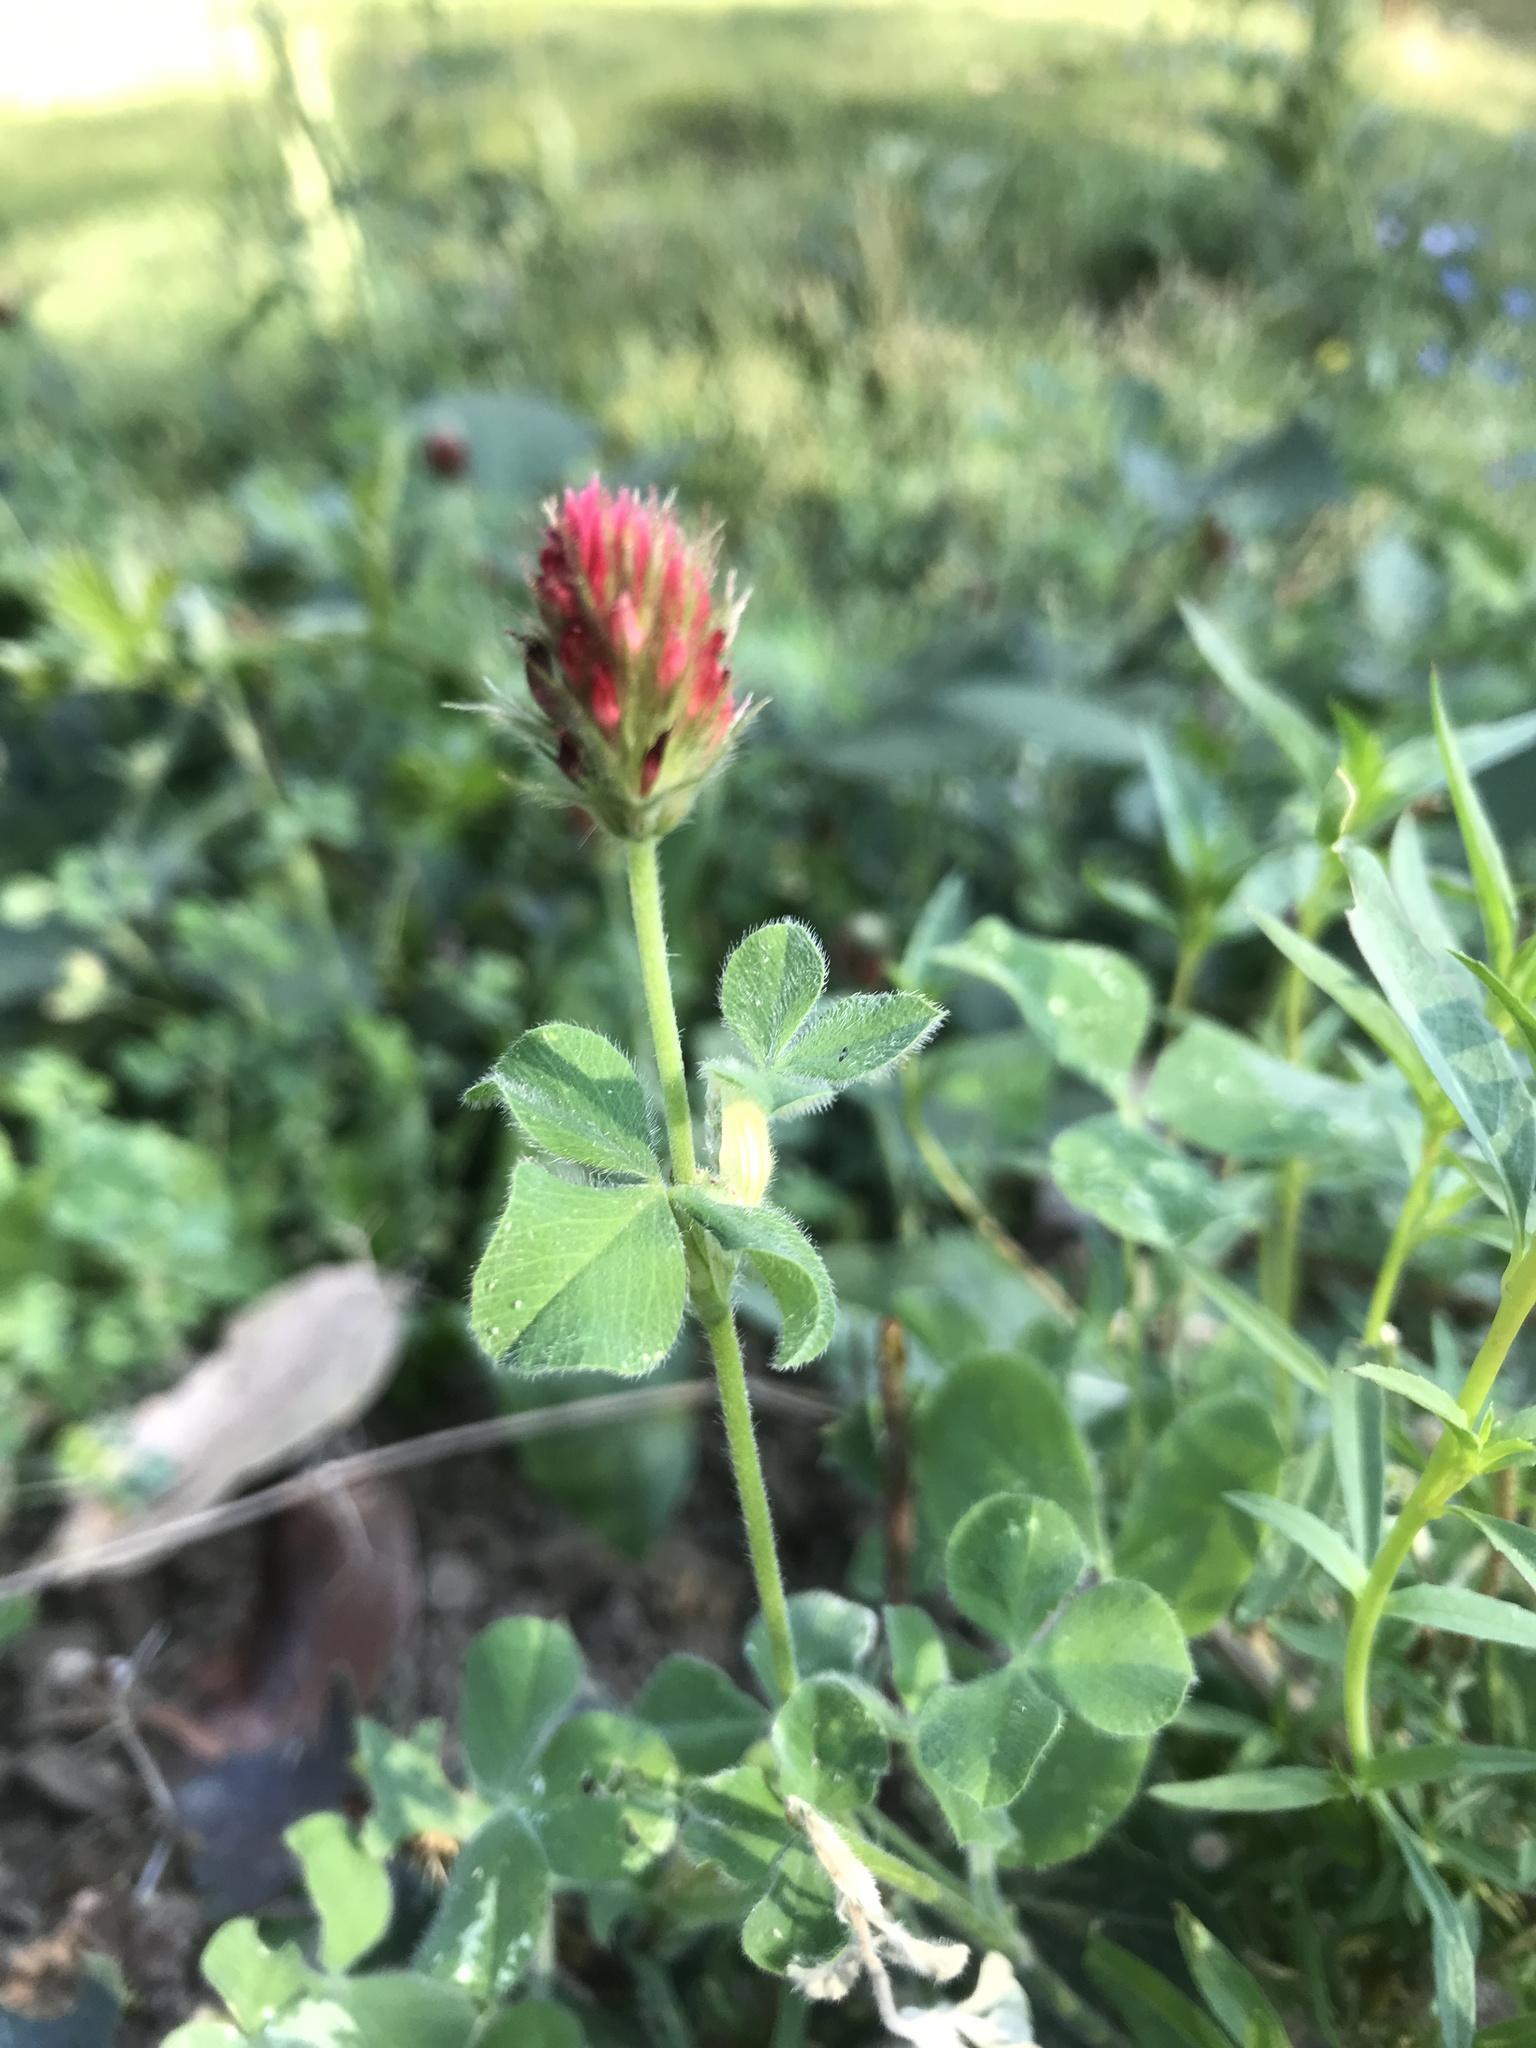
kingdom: Plantae
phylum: Tracheophyta
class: Magnoliopsida
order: Fabales
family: Fabaceae
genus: Trifolium
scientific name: Trifolium incarnatum
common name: Crimson clover
